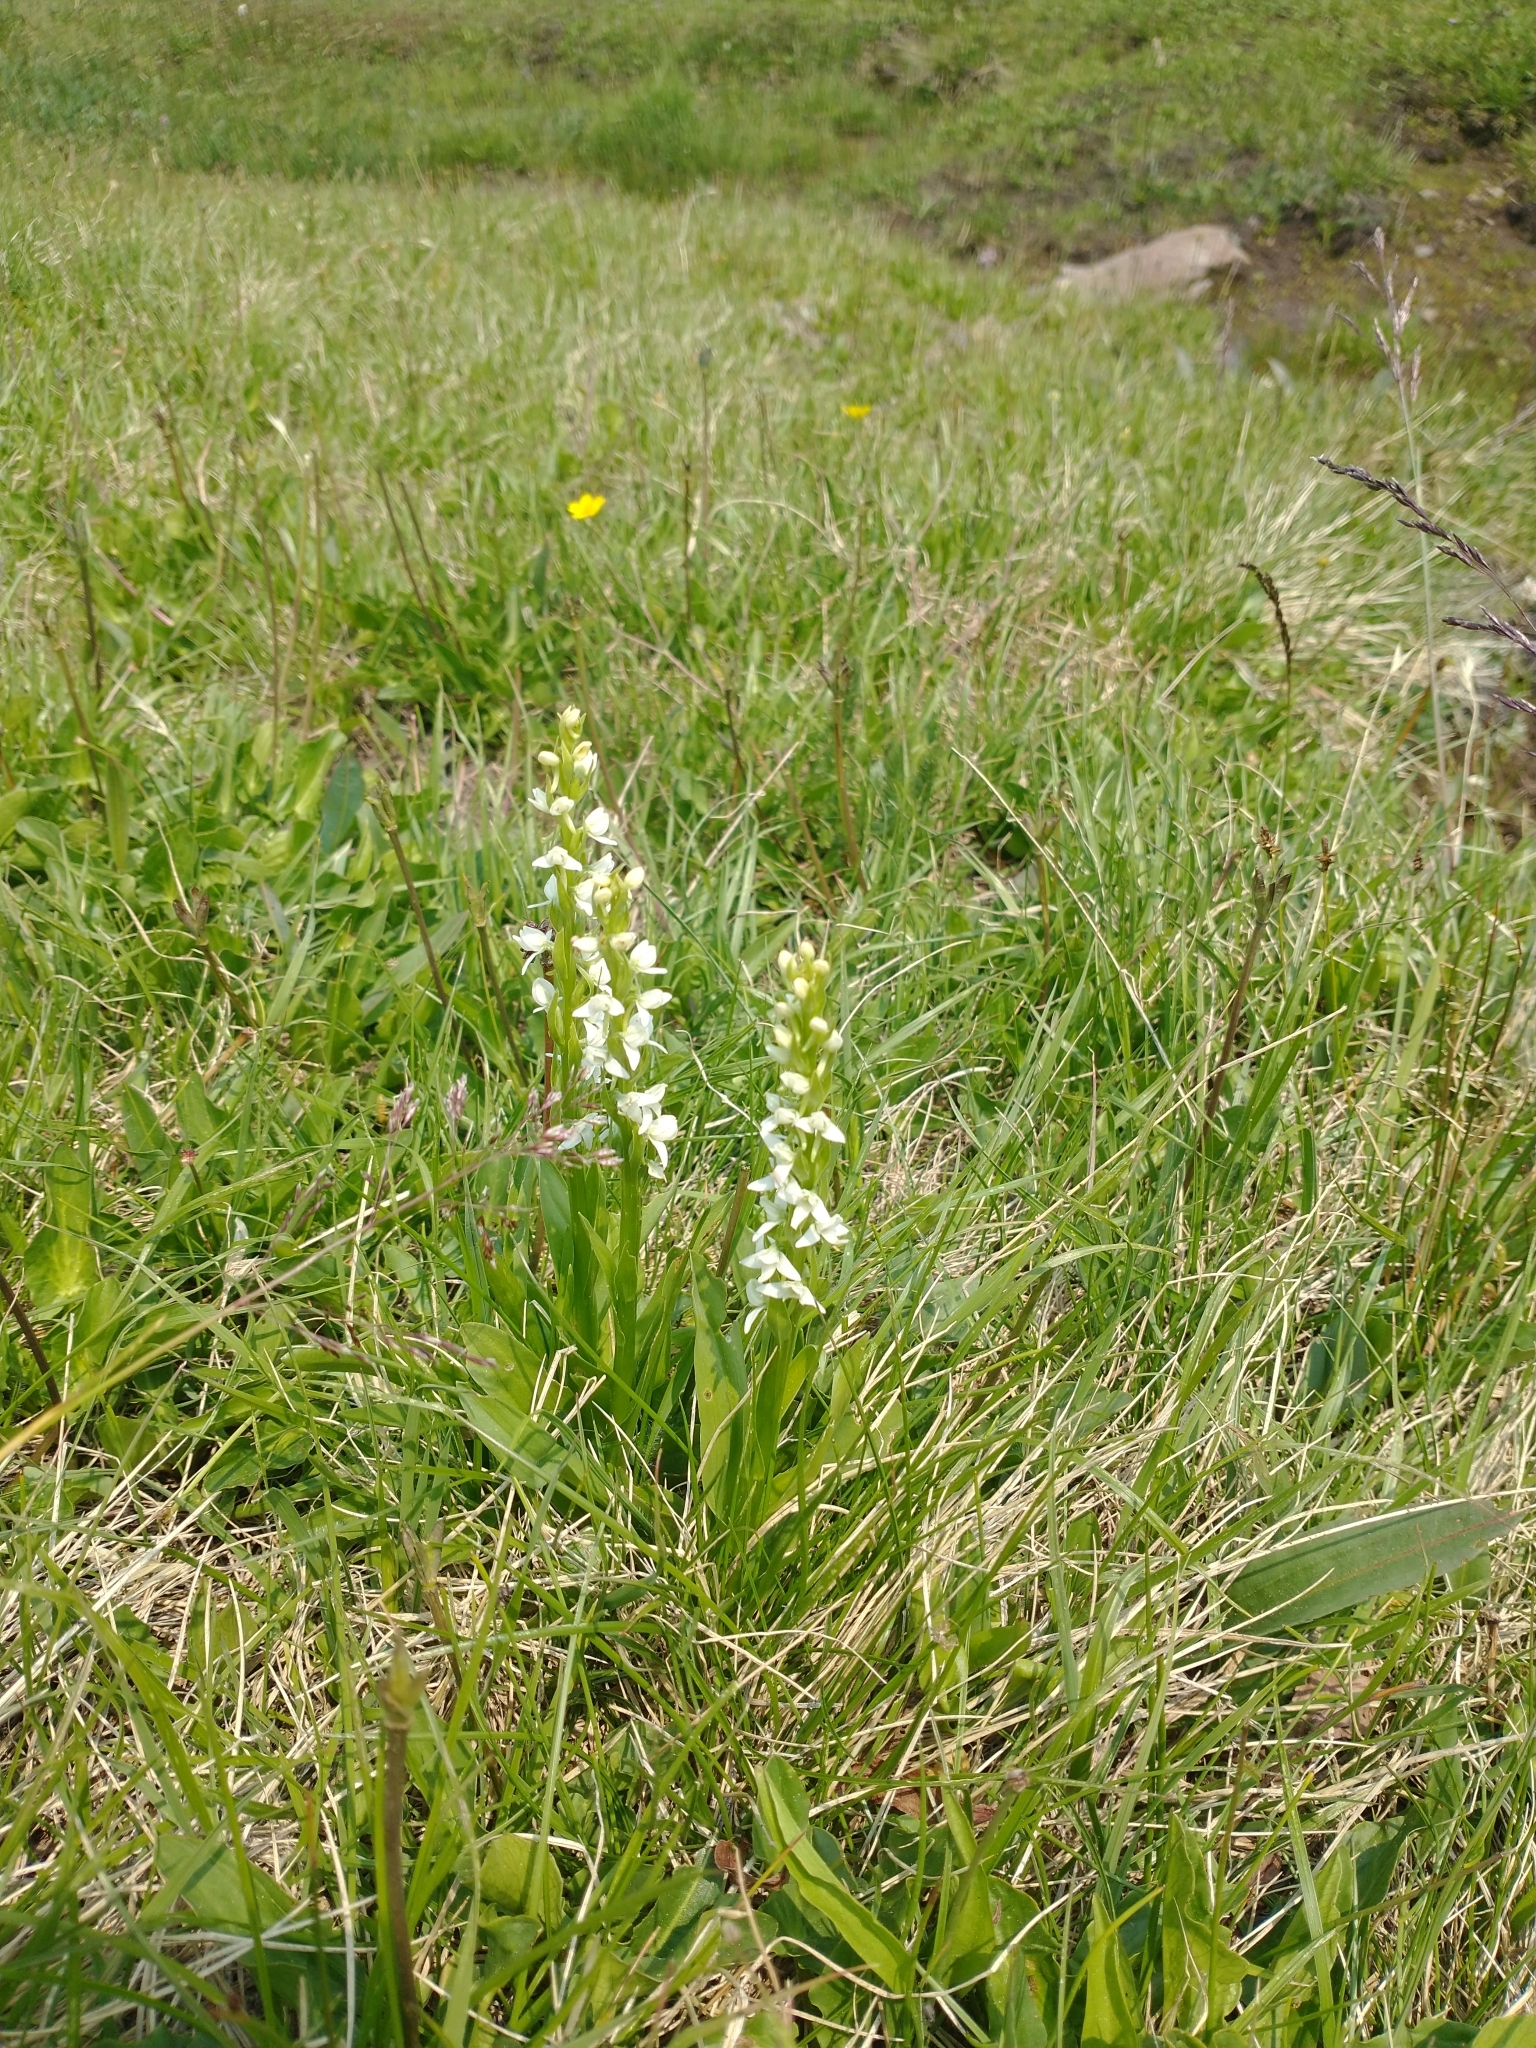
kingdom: Plantae
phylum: Tracheophyta
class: Liliopsida
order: Asparagales
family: Orchidaceae
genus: Platanthera
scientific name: Platanthera dilatata
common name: Bog candles
